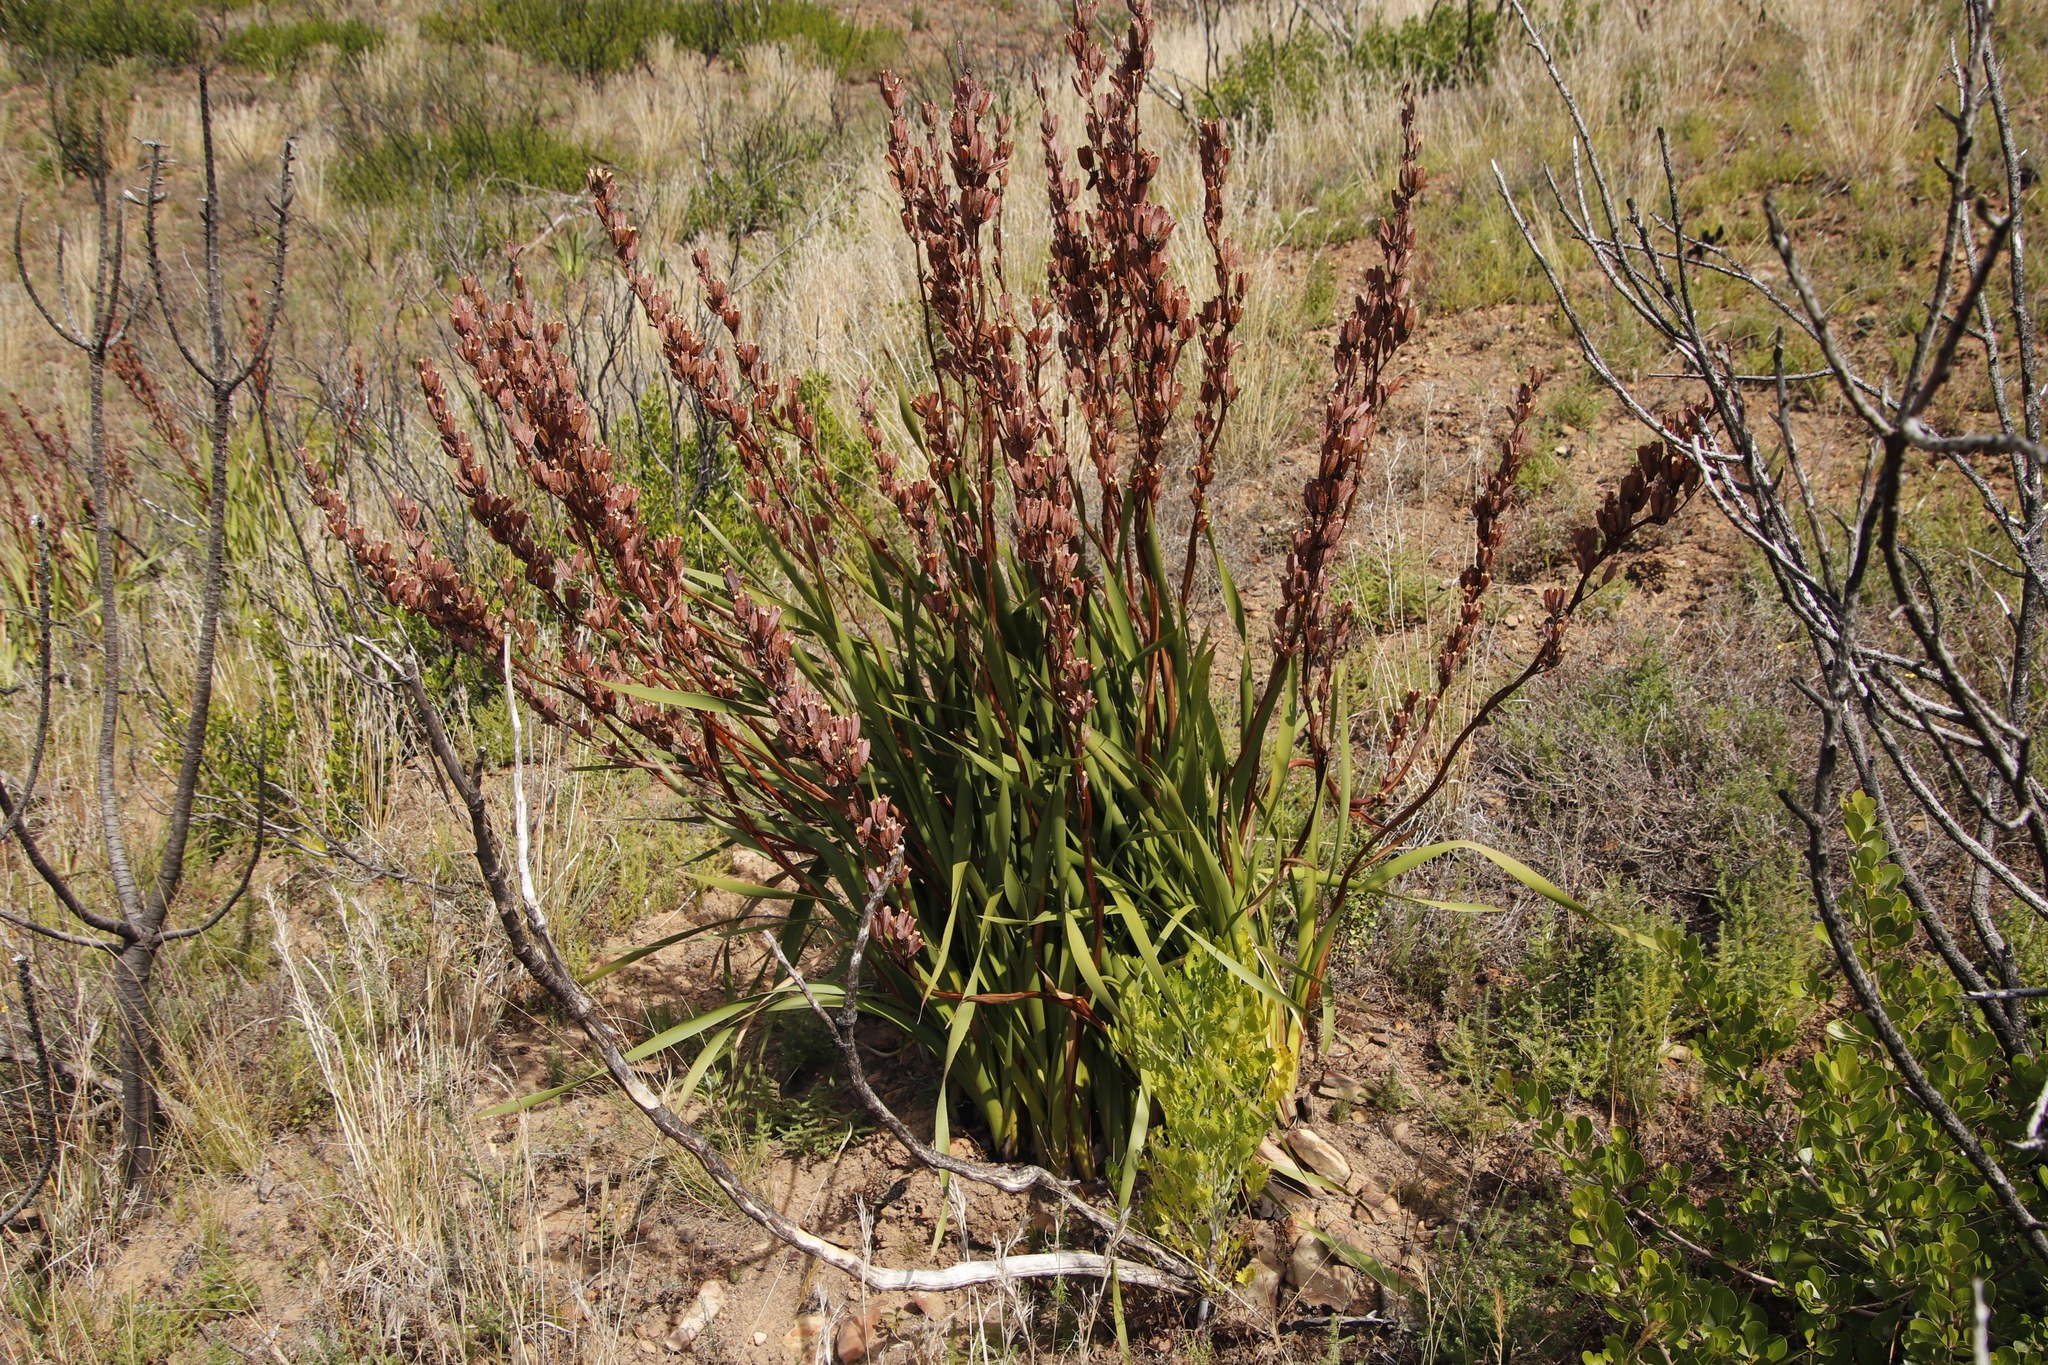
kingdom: Plantae
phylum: Tracheophyta
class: Liliopsida
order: Asparagales
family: Iridaceae
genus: Aristea
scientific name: Aristea bakeri
